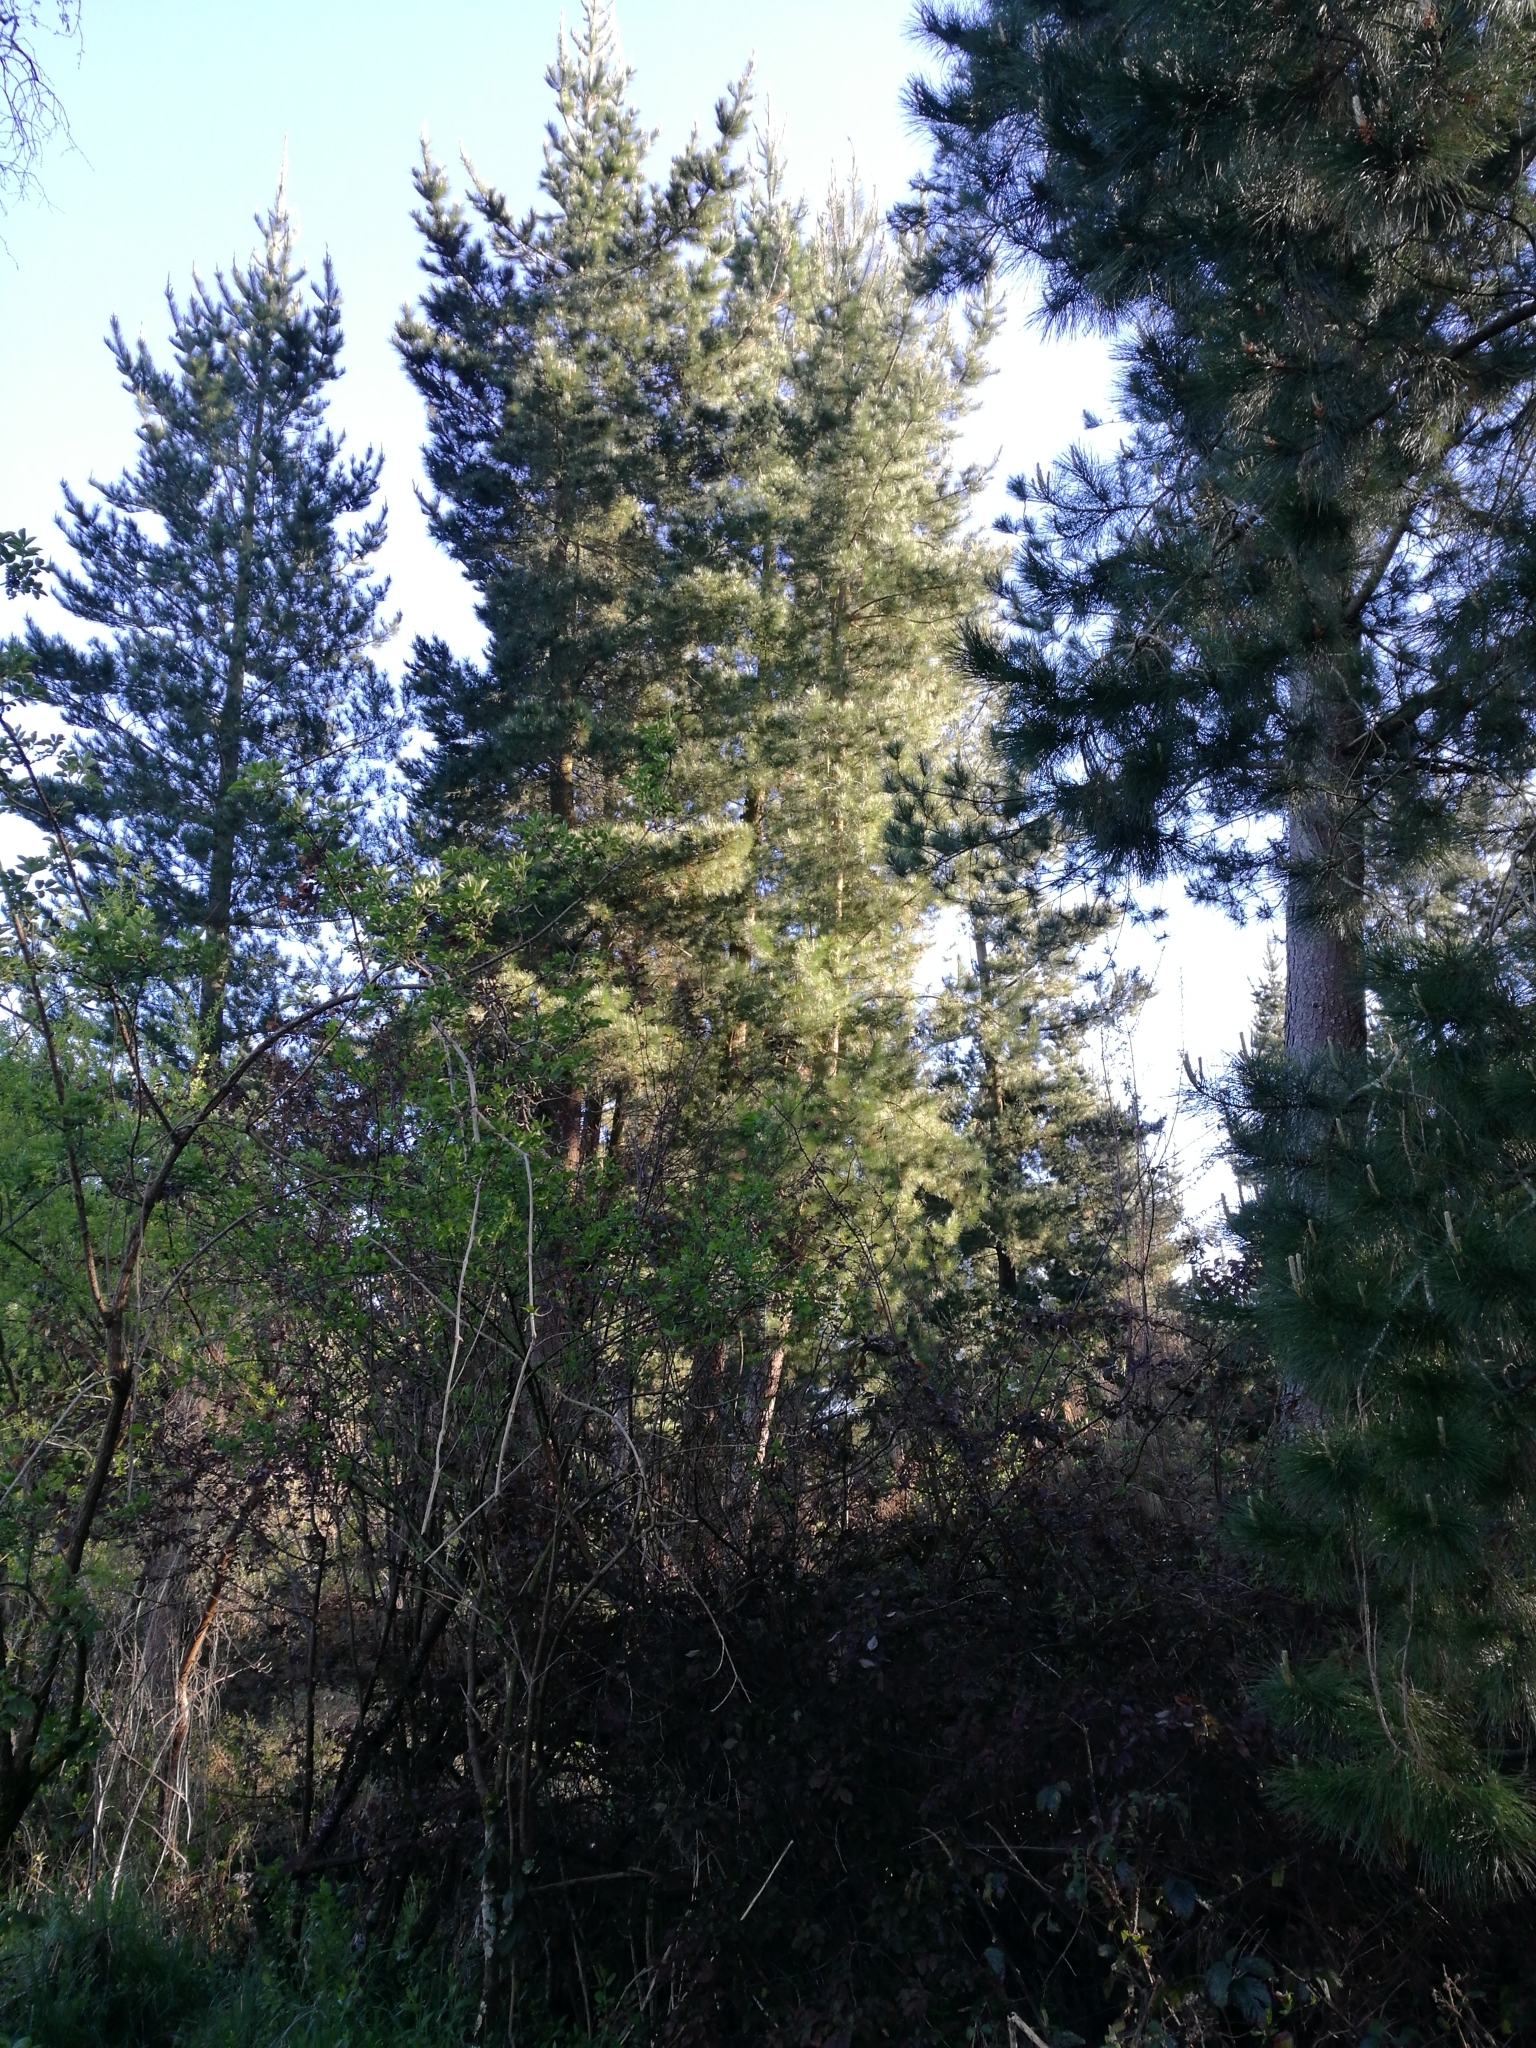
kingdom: Plantae
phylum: Tracheophyta
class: Pinopsida
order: Pinales
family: Pinaceae
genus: Pinus
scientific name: Pinus radiata
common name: Monterey pine
